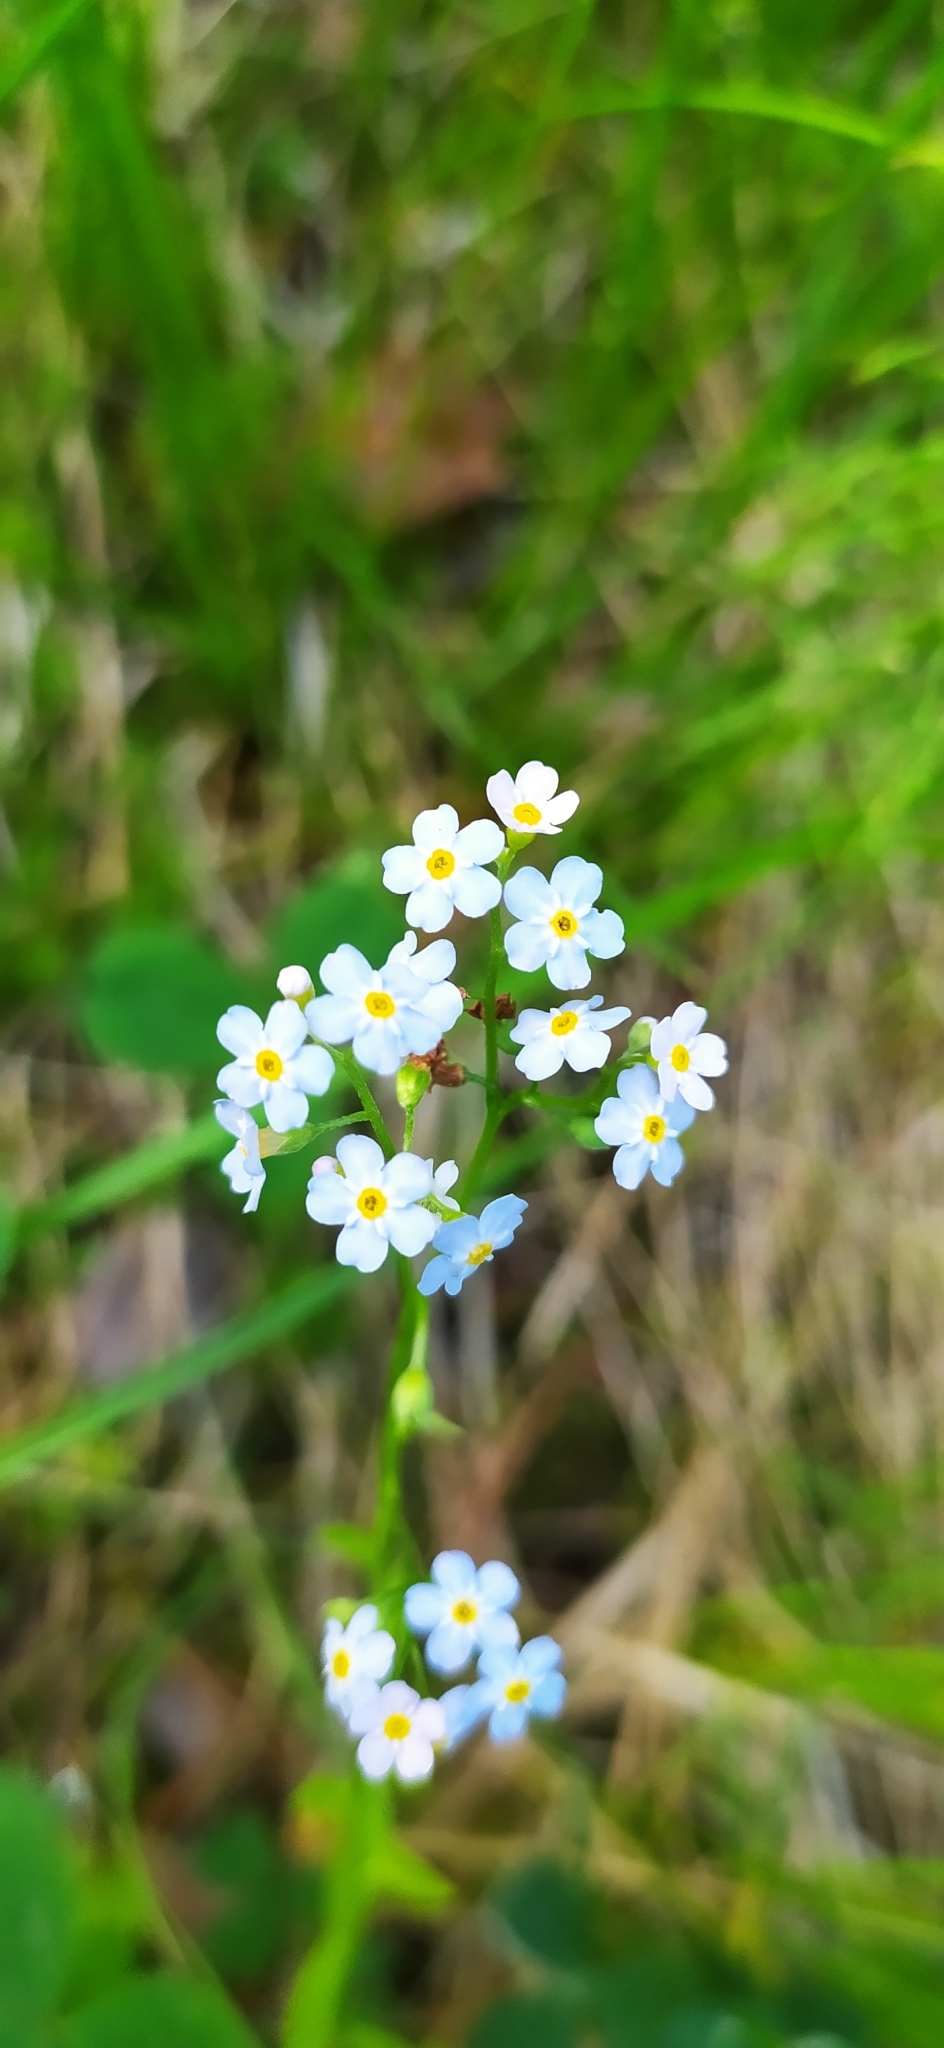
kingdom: Plantae
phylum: Tracheophyta
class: Magnoliopsida
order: Boraginales
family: Boraginaceae
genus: Myosotis
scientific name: Myosotis scorpioides
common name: Water forget-me-not
